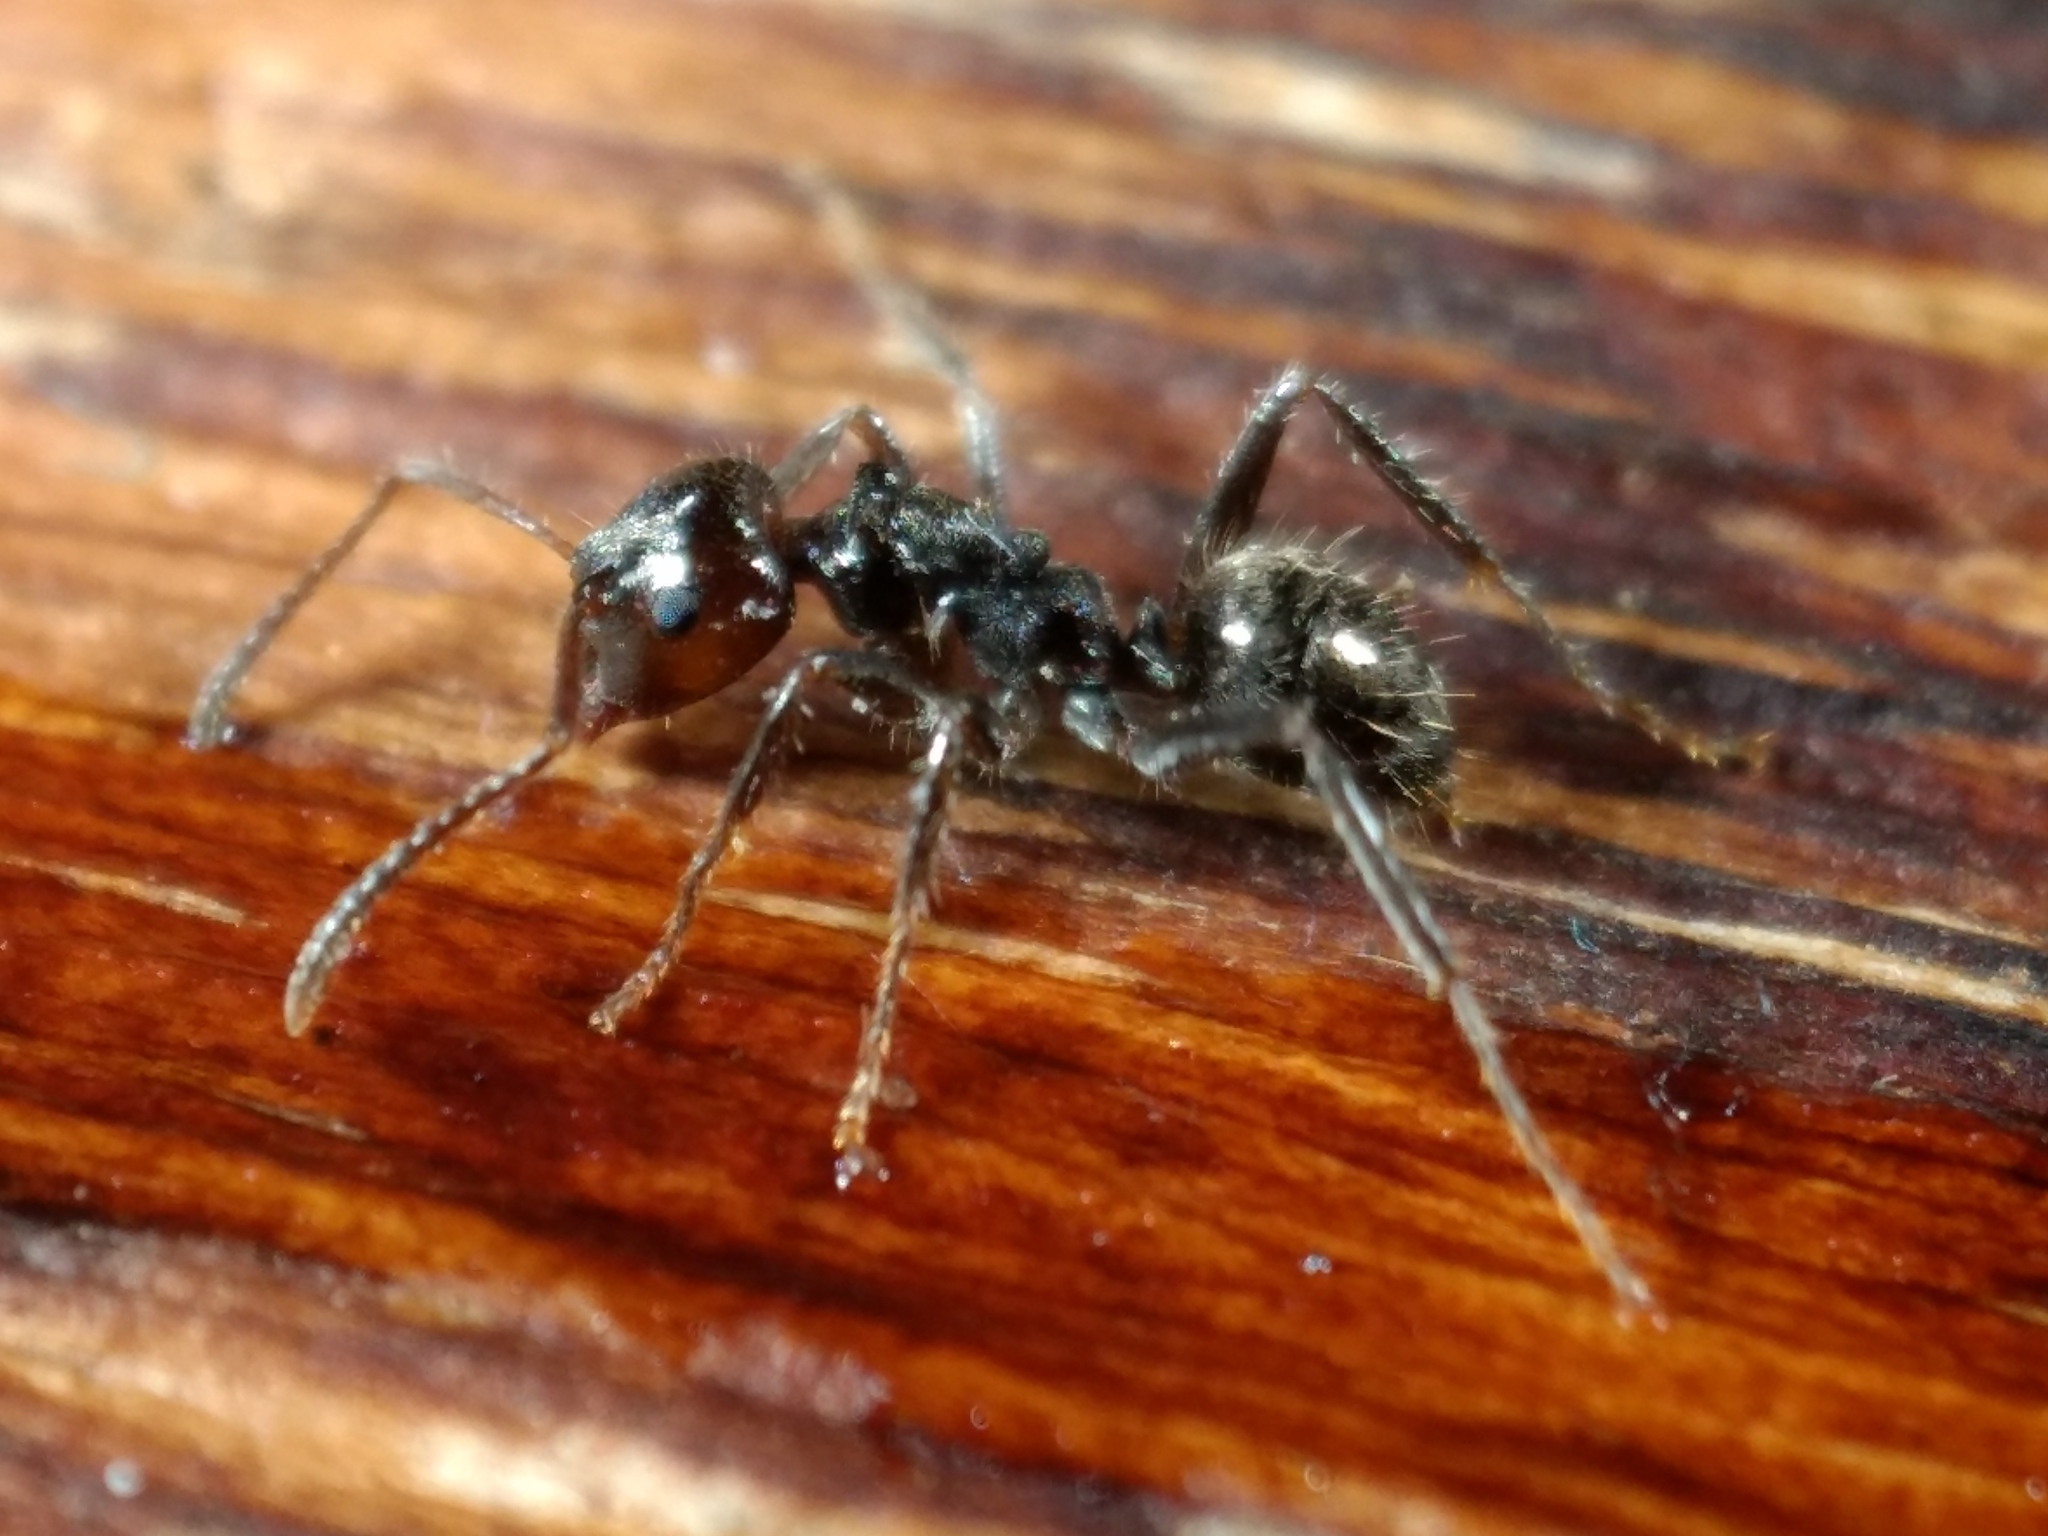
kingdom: Animalia
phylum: Arthropoda
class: Insecta
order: Hymenoptera
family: Formicidae
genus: Notoncus
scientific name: Notoncus capitatus
